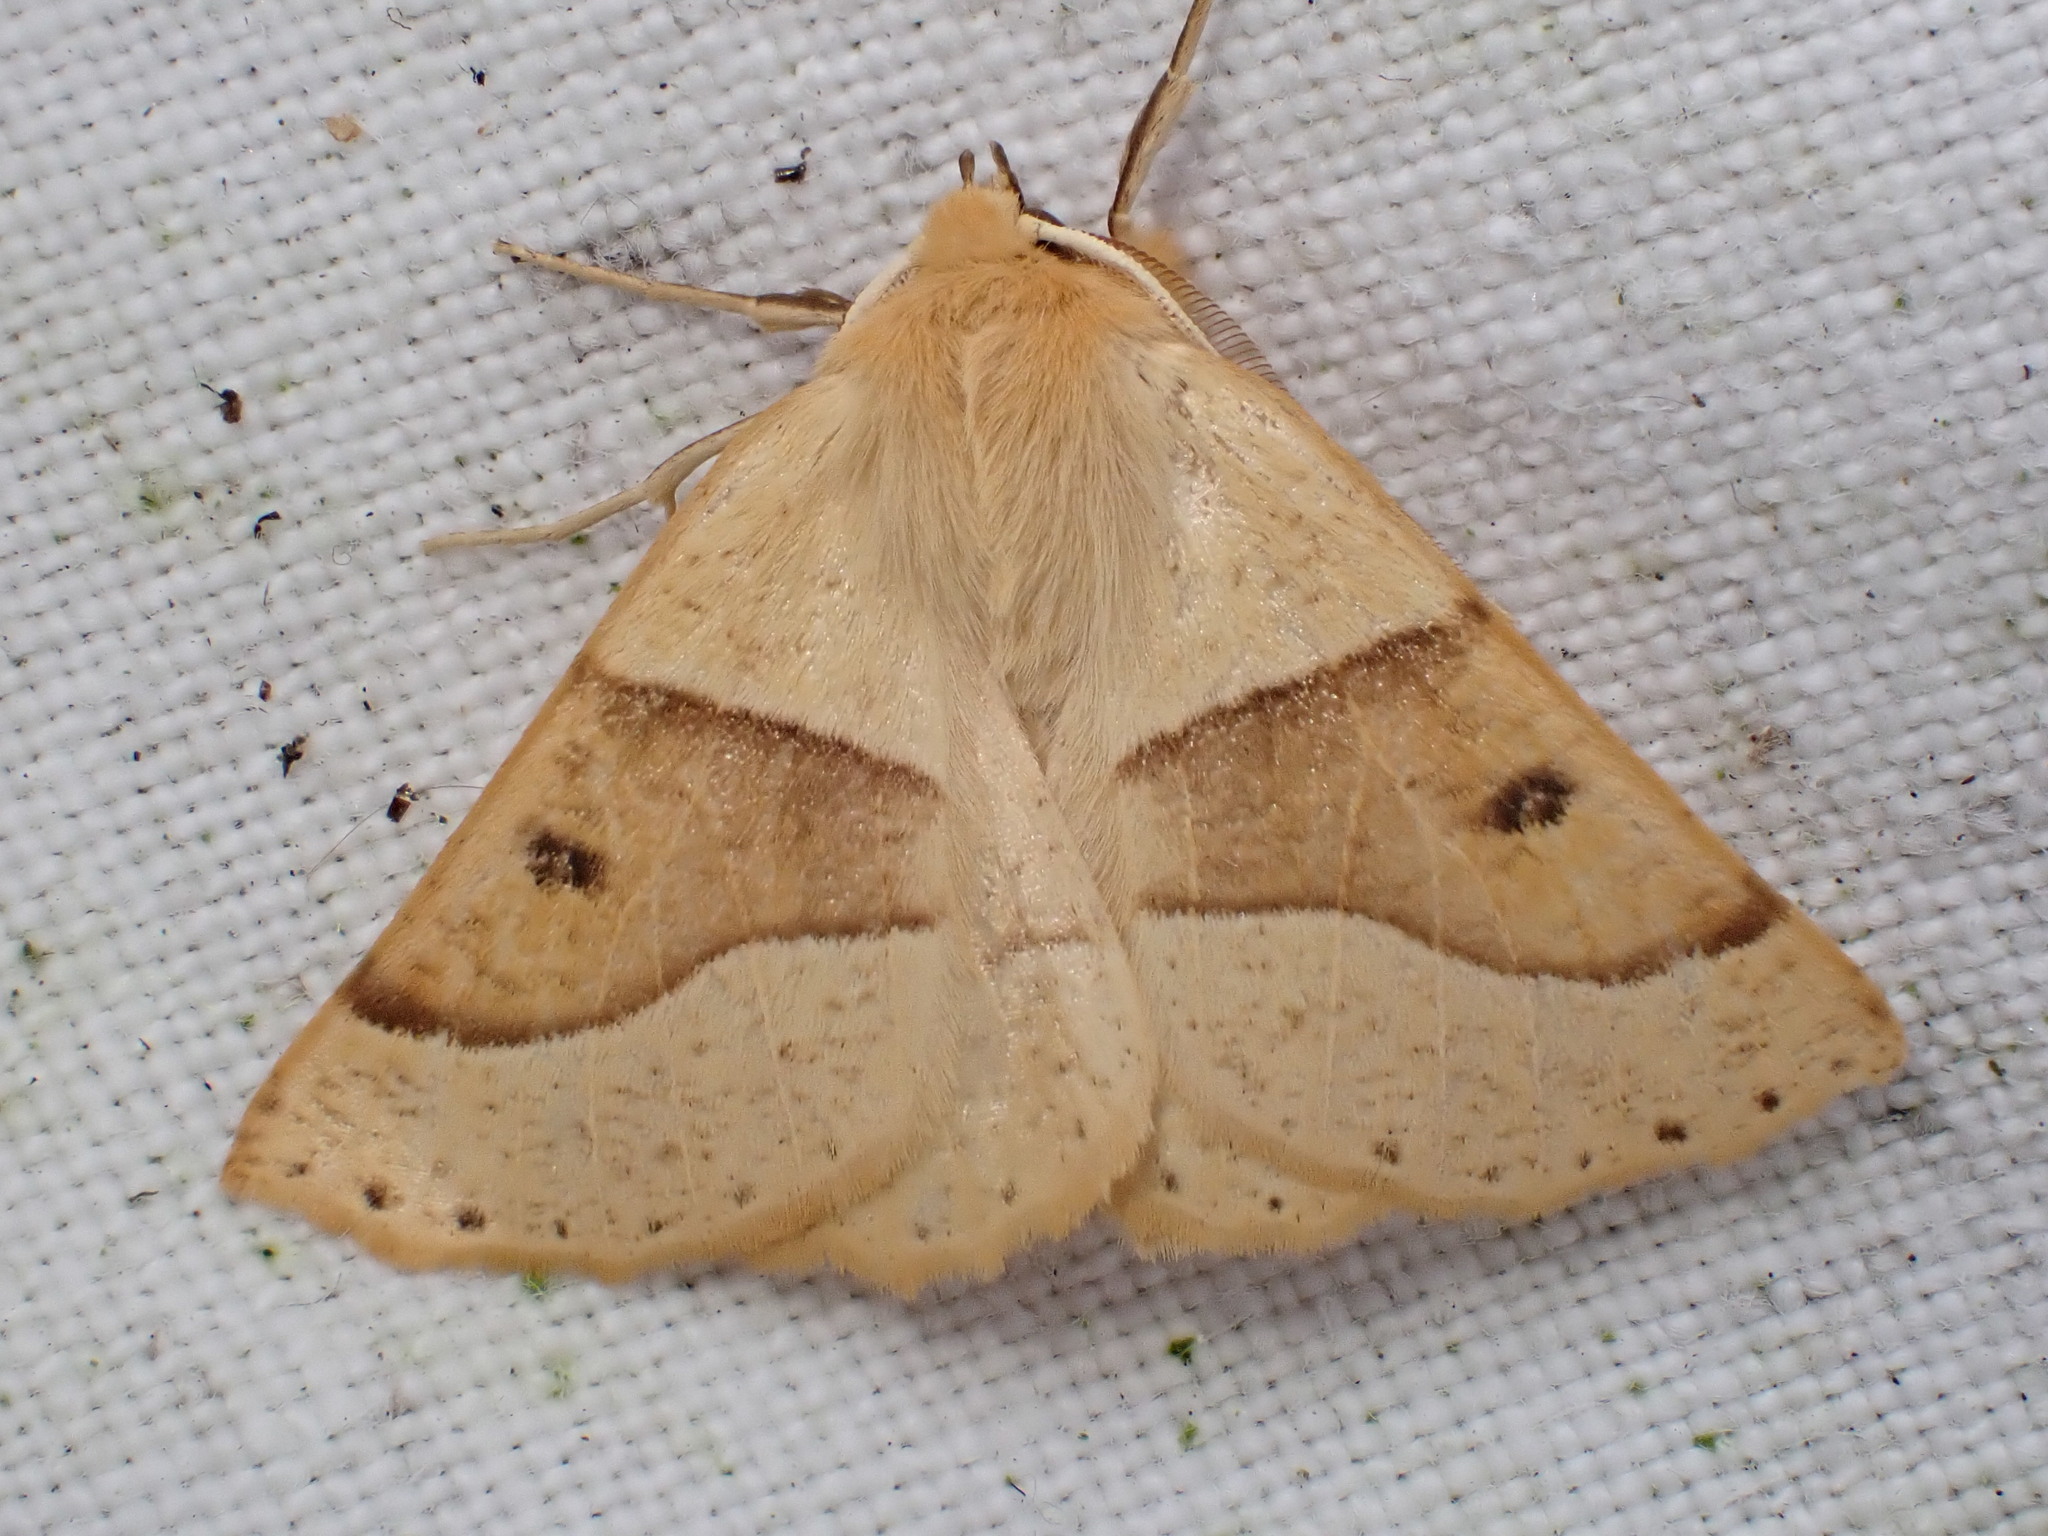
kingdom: Animalia
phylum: Arthropoda
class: Insecta
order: Lepidoptera
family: Geometridae
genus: Crocallis
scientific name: Crocallis elinguaria
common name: Scalloped oak
